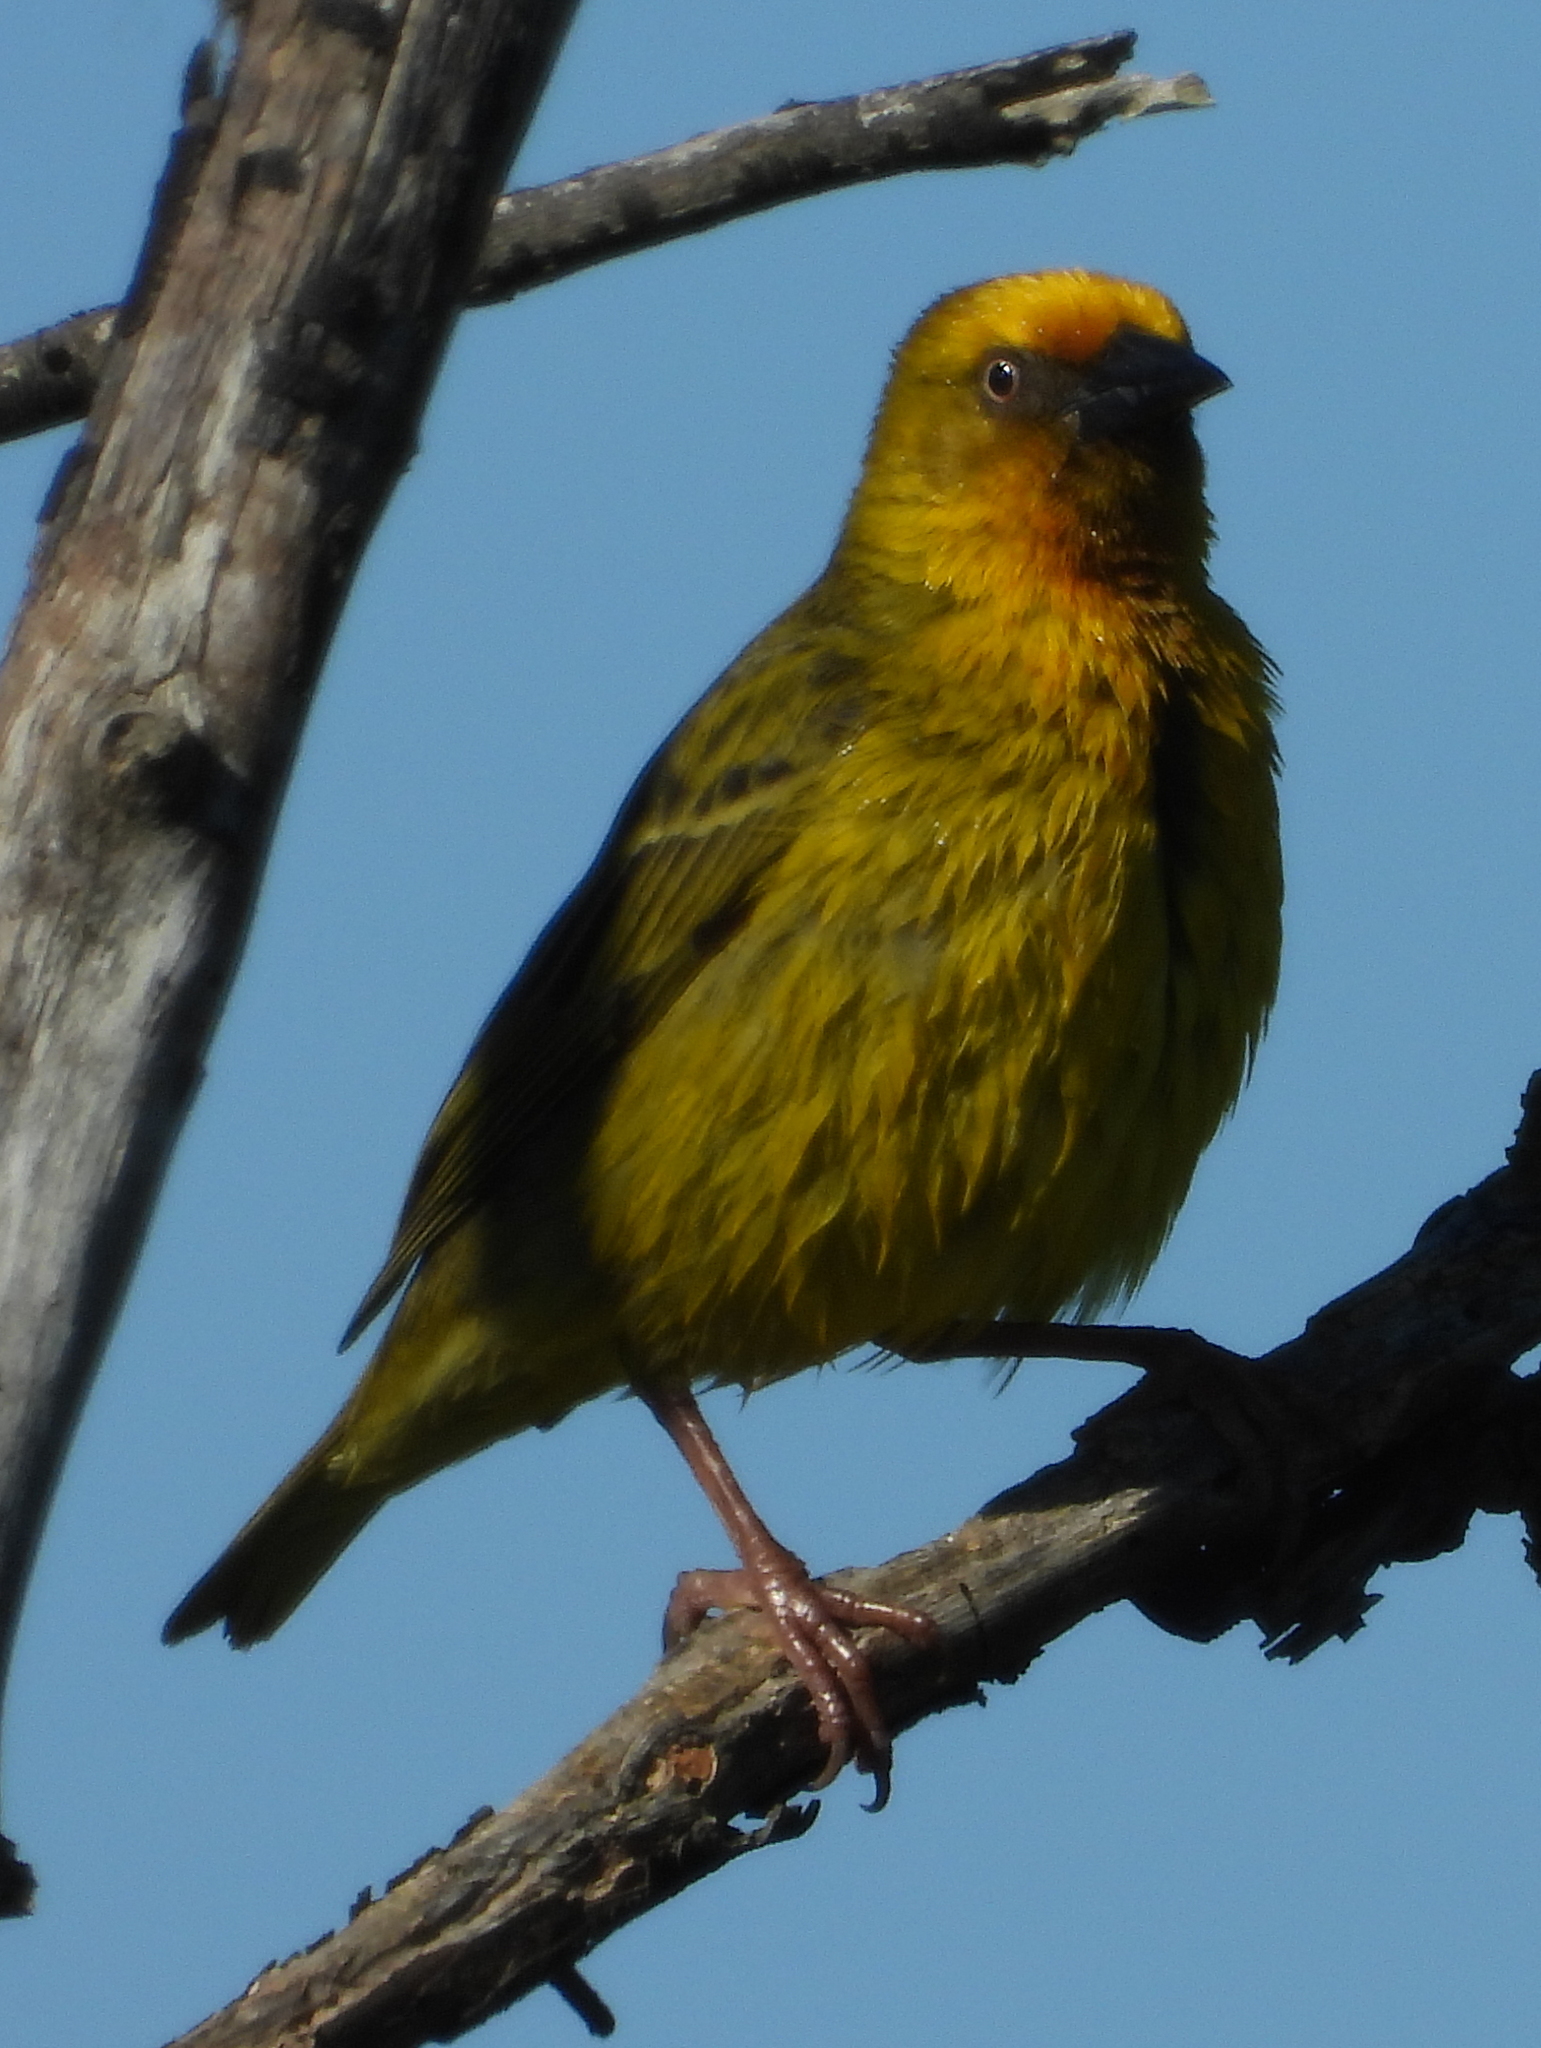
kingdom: Animalia
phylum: Chordata
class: Aves
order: Passeriformes
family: Ploceidae
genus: Ploceus
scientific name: Ploceus capensis
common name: Cape weaver
